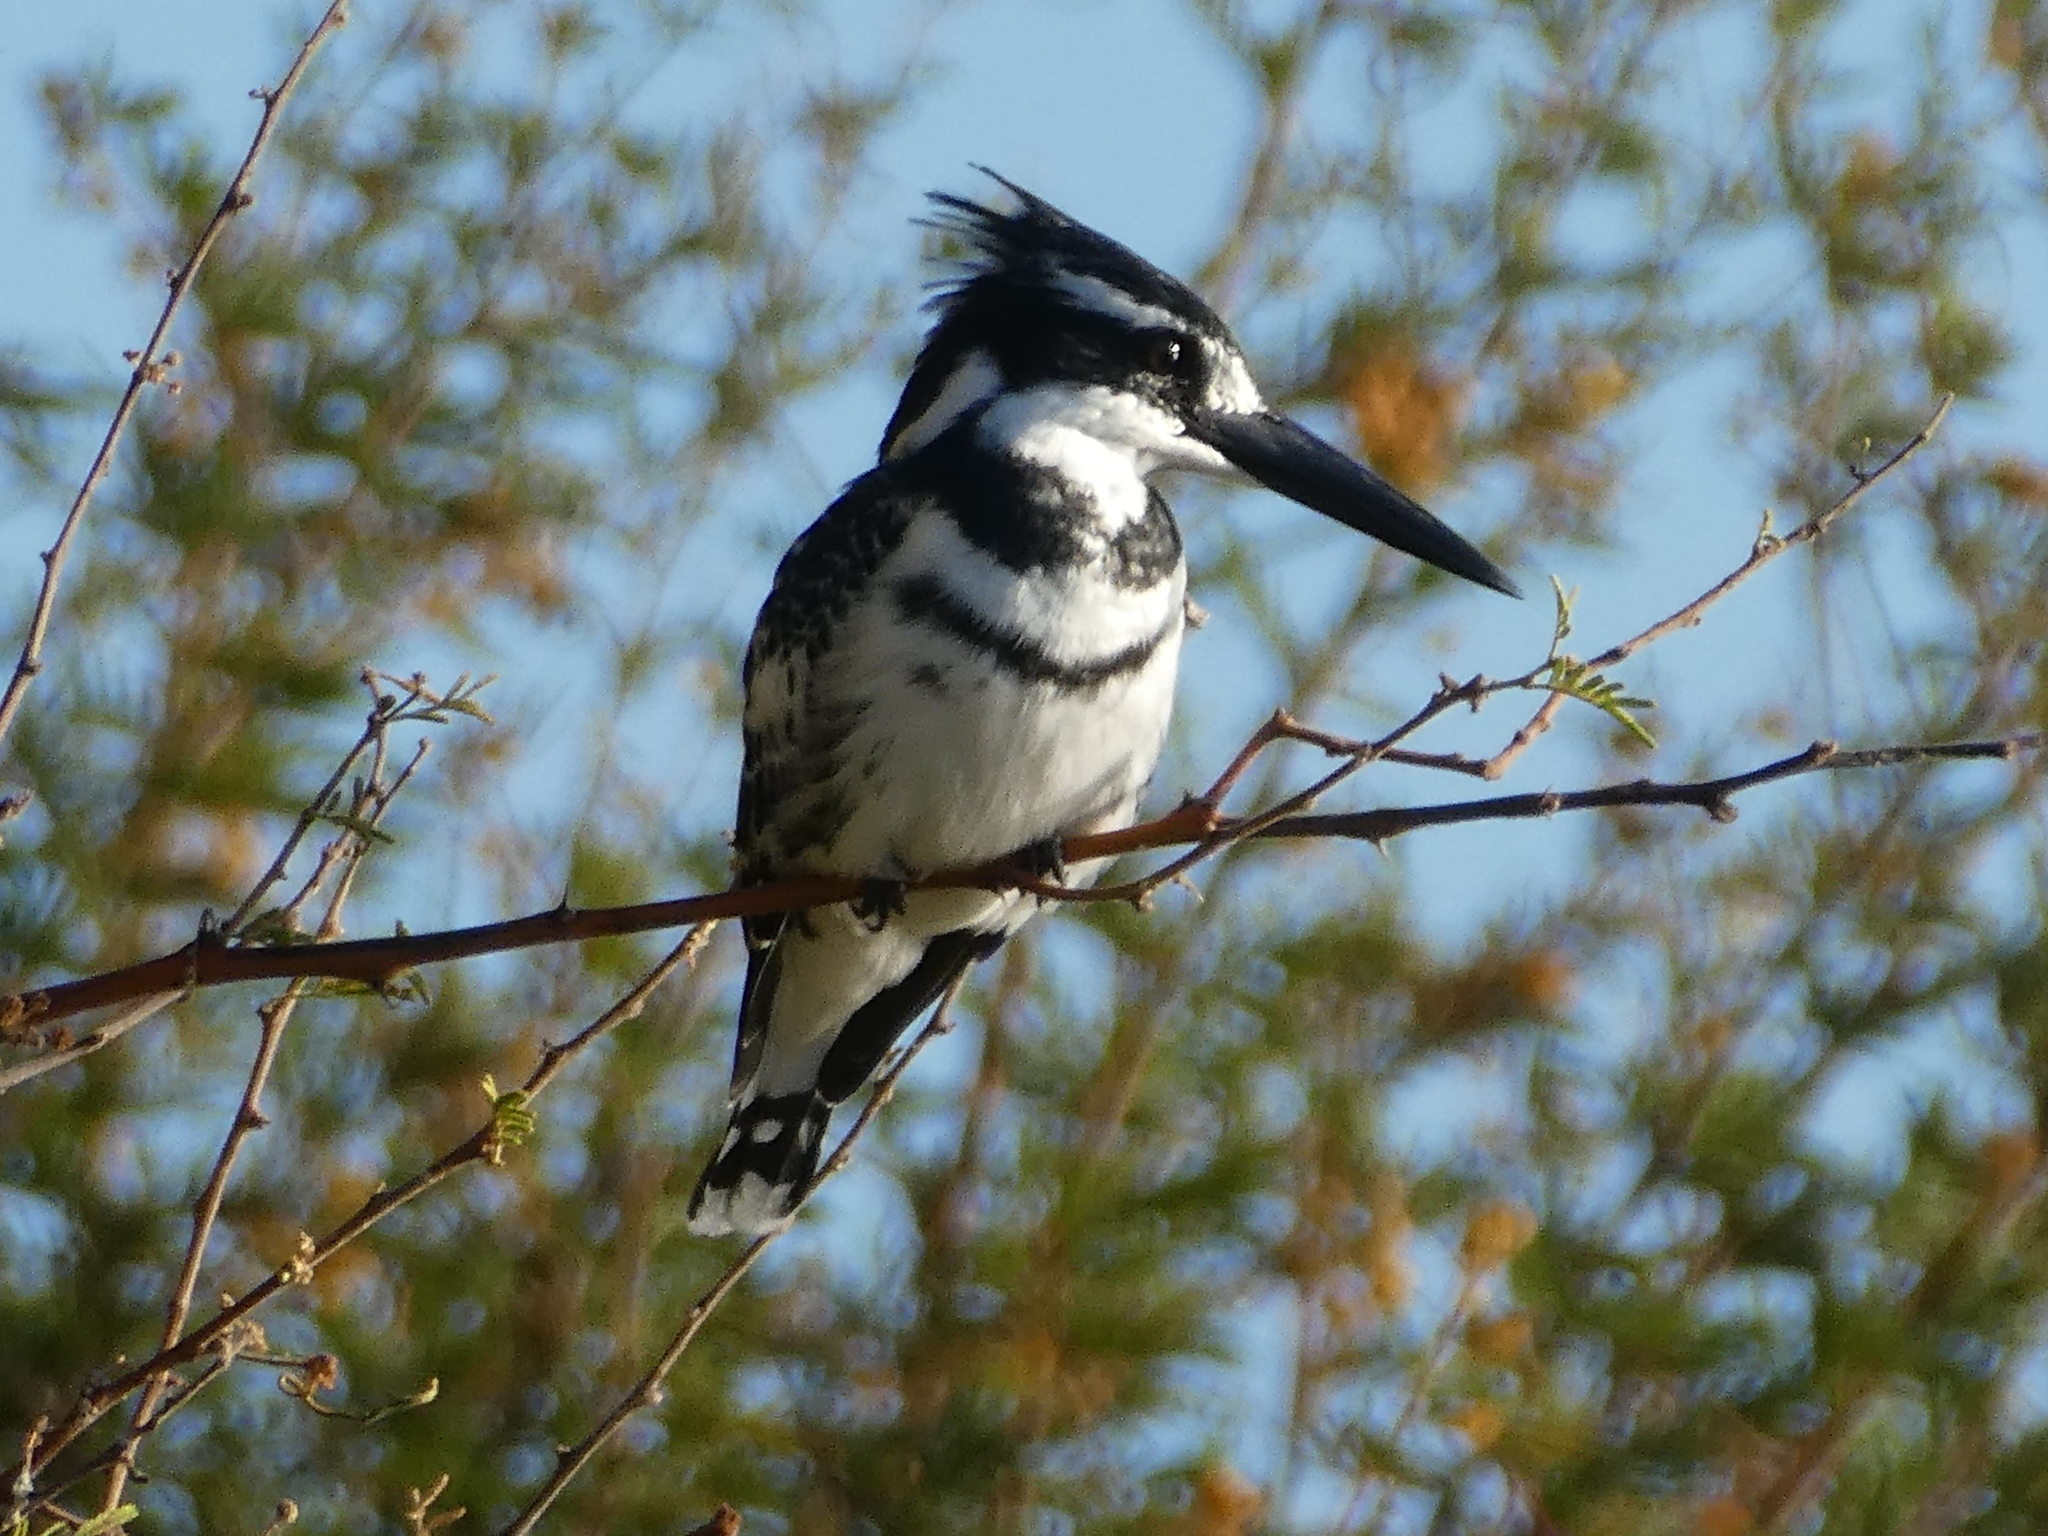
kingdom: Animalia
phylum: Chordata
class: Aves
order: Coraciiformes
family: Alcedinidae
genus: Ceryle
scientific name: Ceryle rudis
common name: Pied kingfisher
